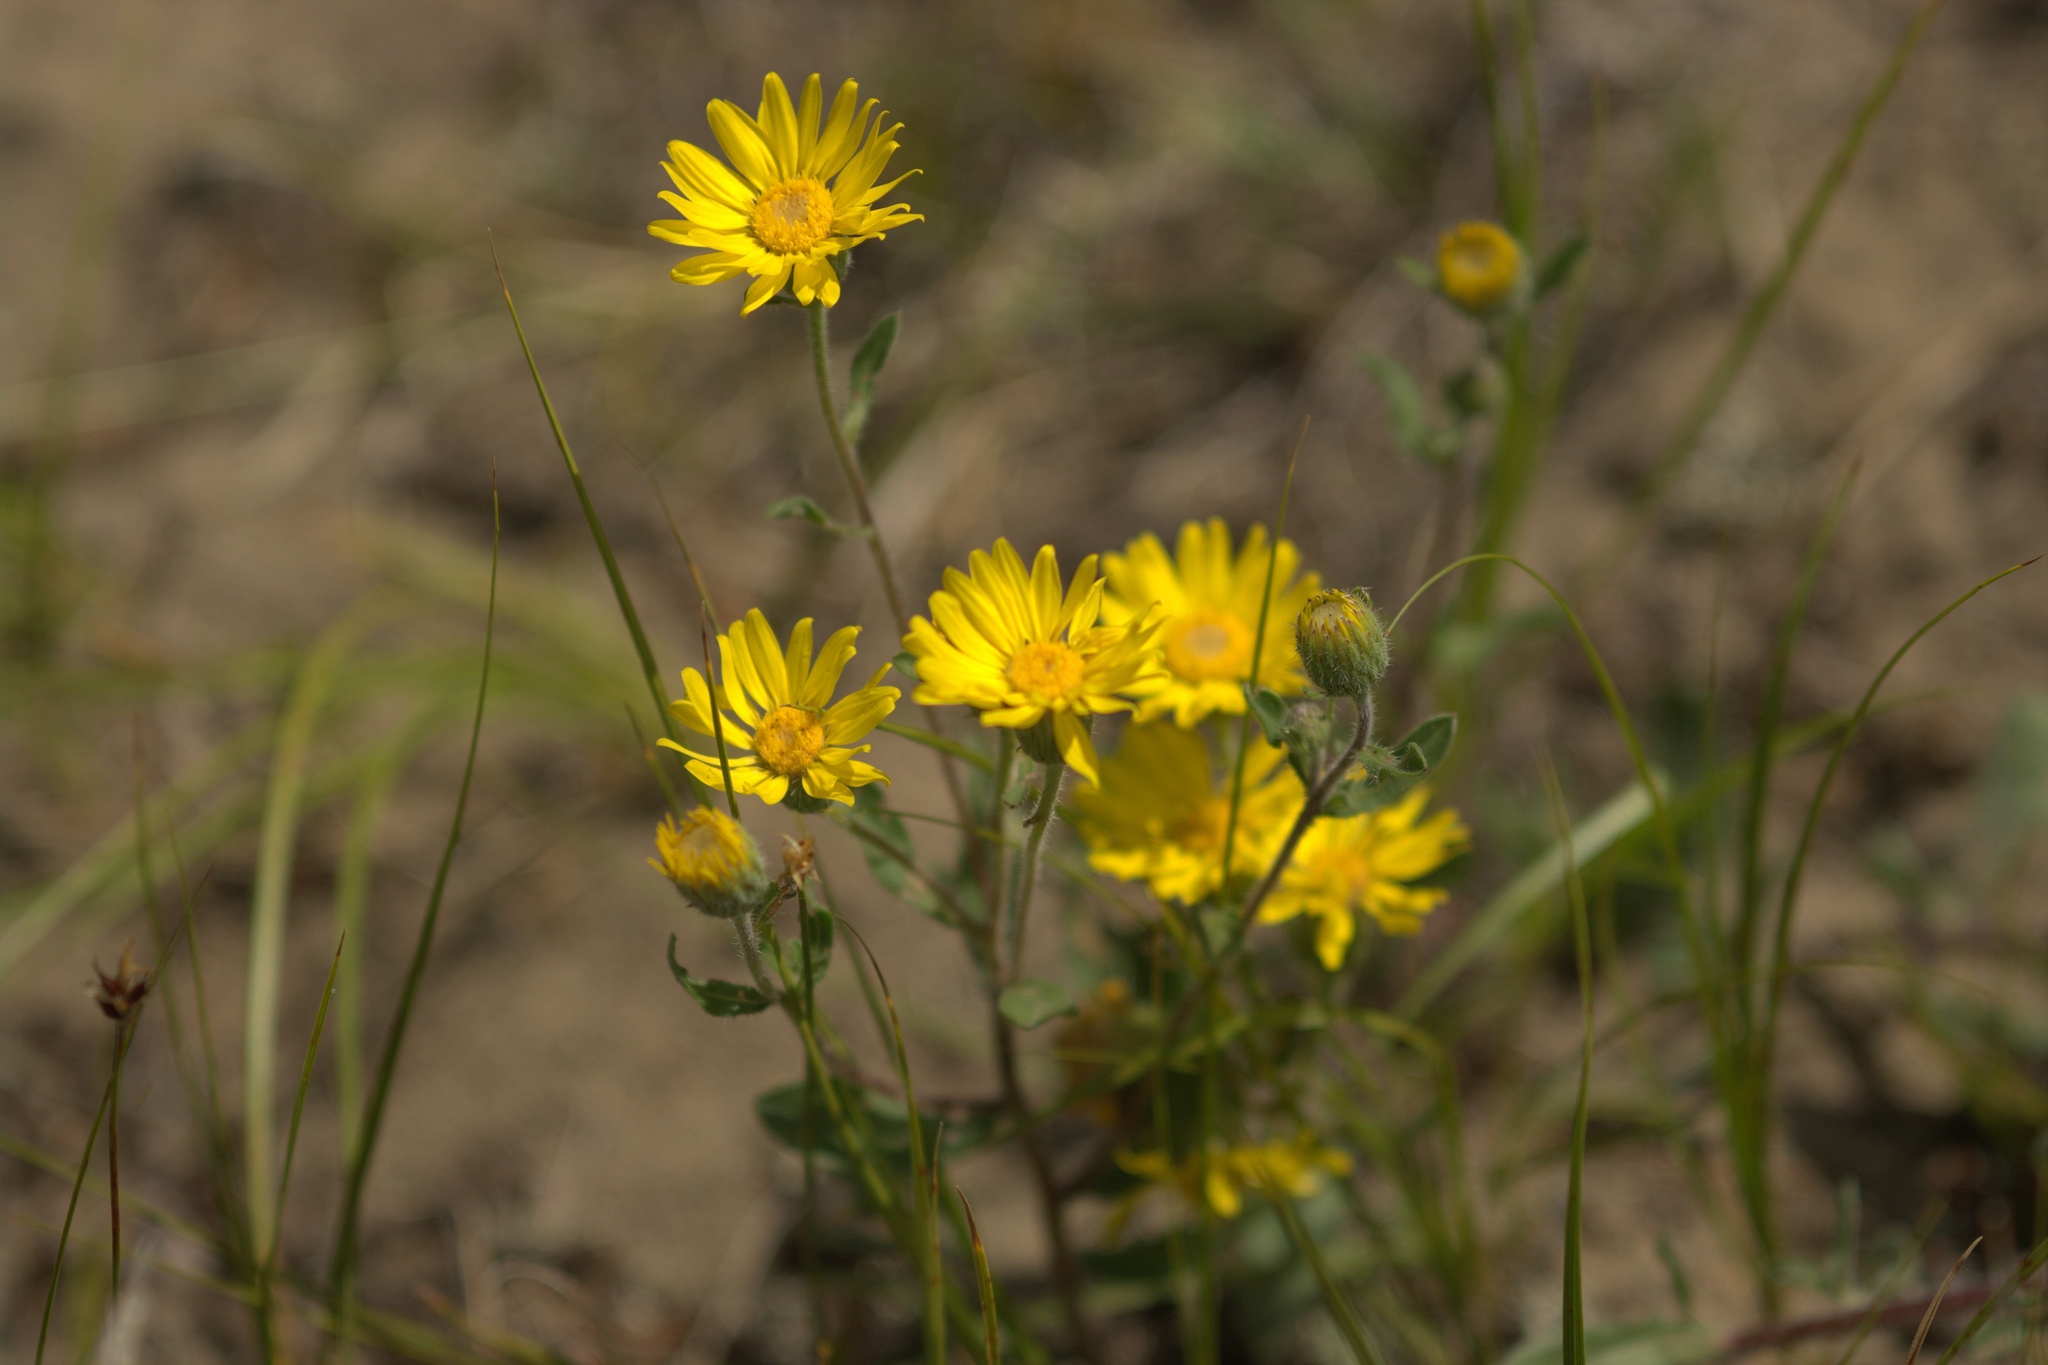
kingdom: Plantae
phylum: Tracheophyta
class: Magnoliopsida
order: Asterales
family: Asteraceae
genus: Heterotheca
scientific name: Heterotheca villosa
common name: Hairy false goldenaster
